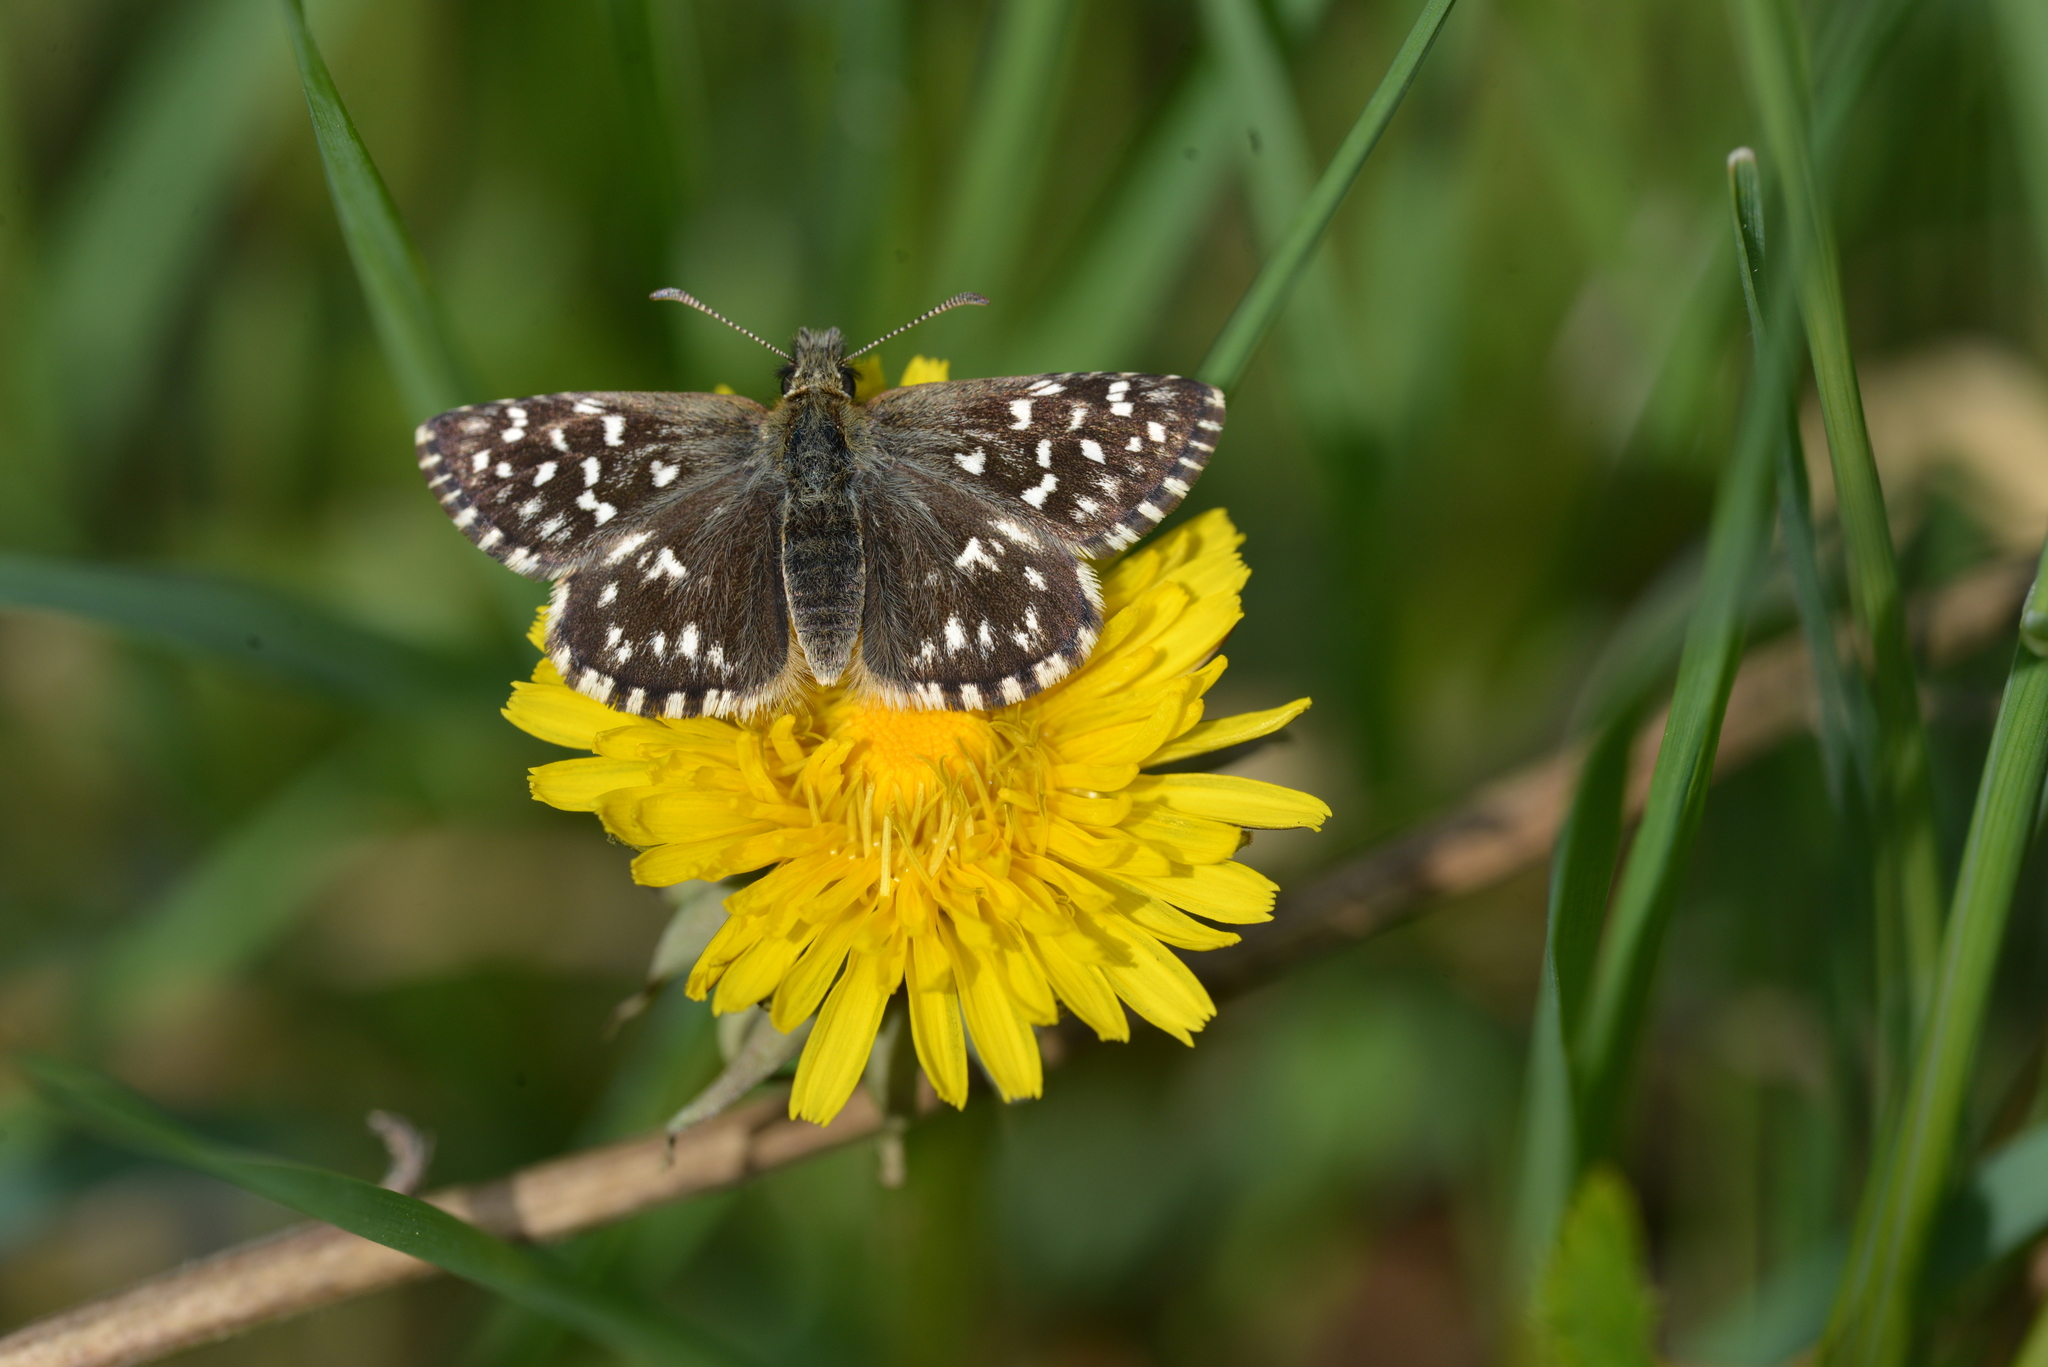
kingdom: Animalia
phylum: Arthropoda
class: Insecta
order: Lepidoptera
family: Hesperiidae
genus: Pyrgus
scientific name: Pyrgus malvae
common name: Grizzled skipper
